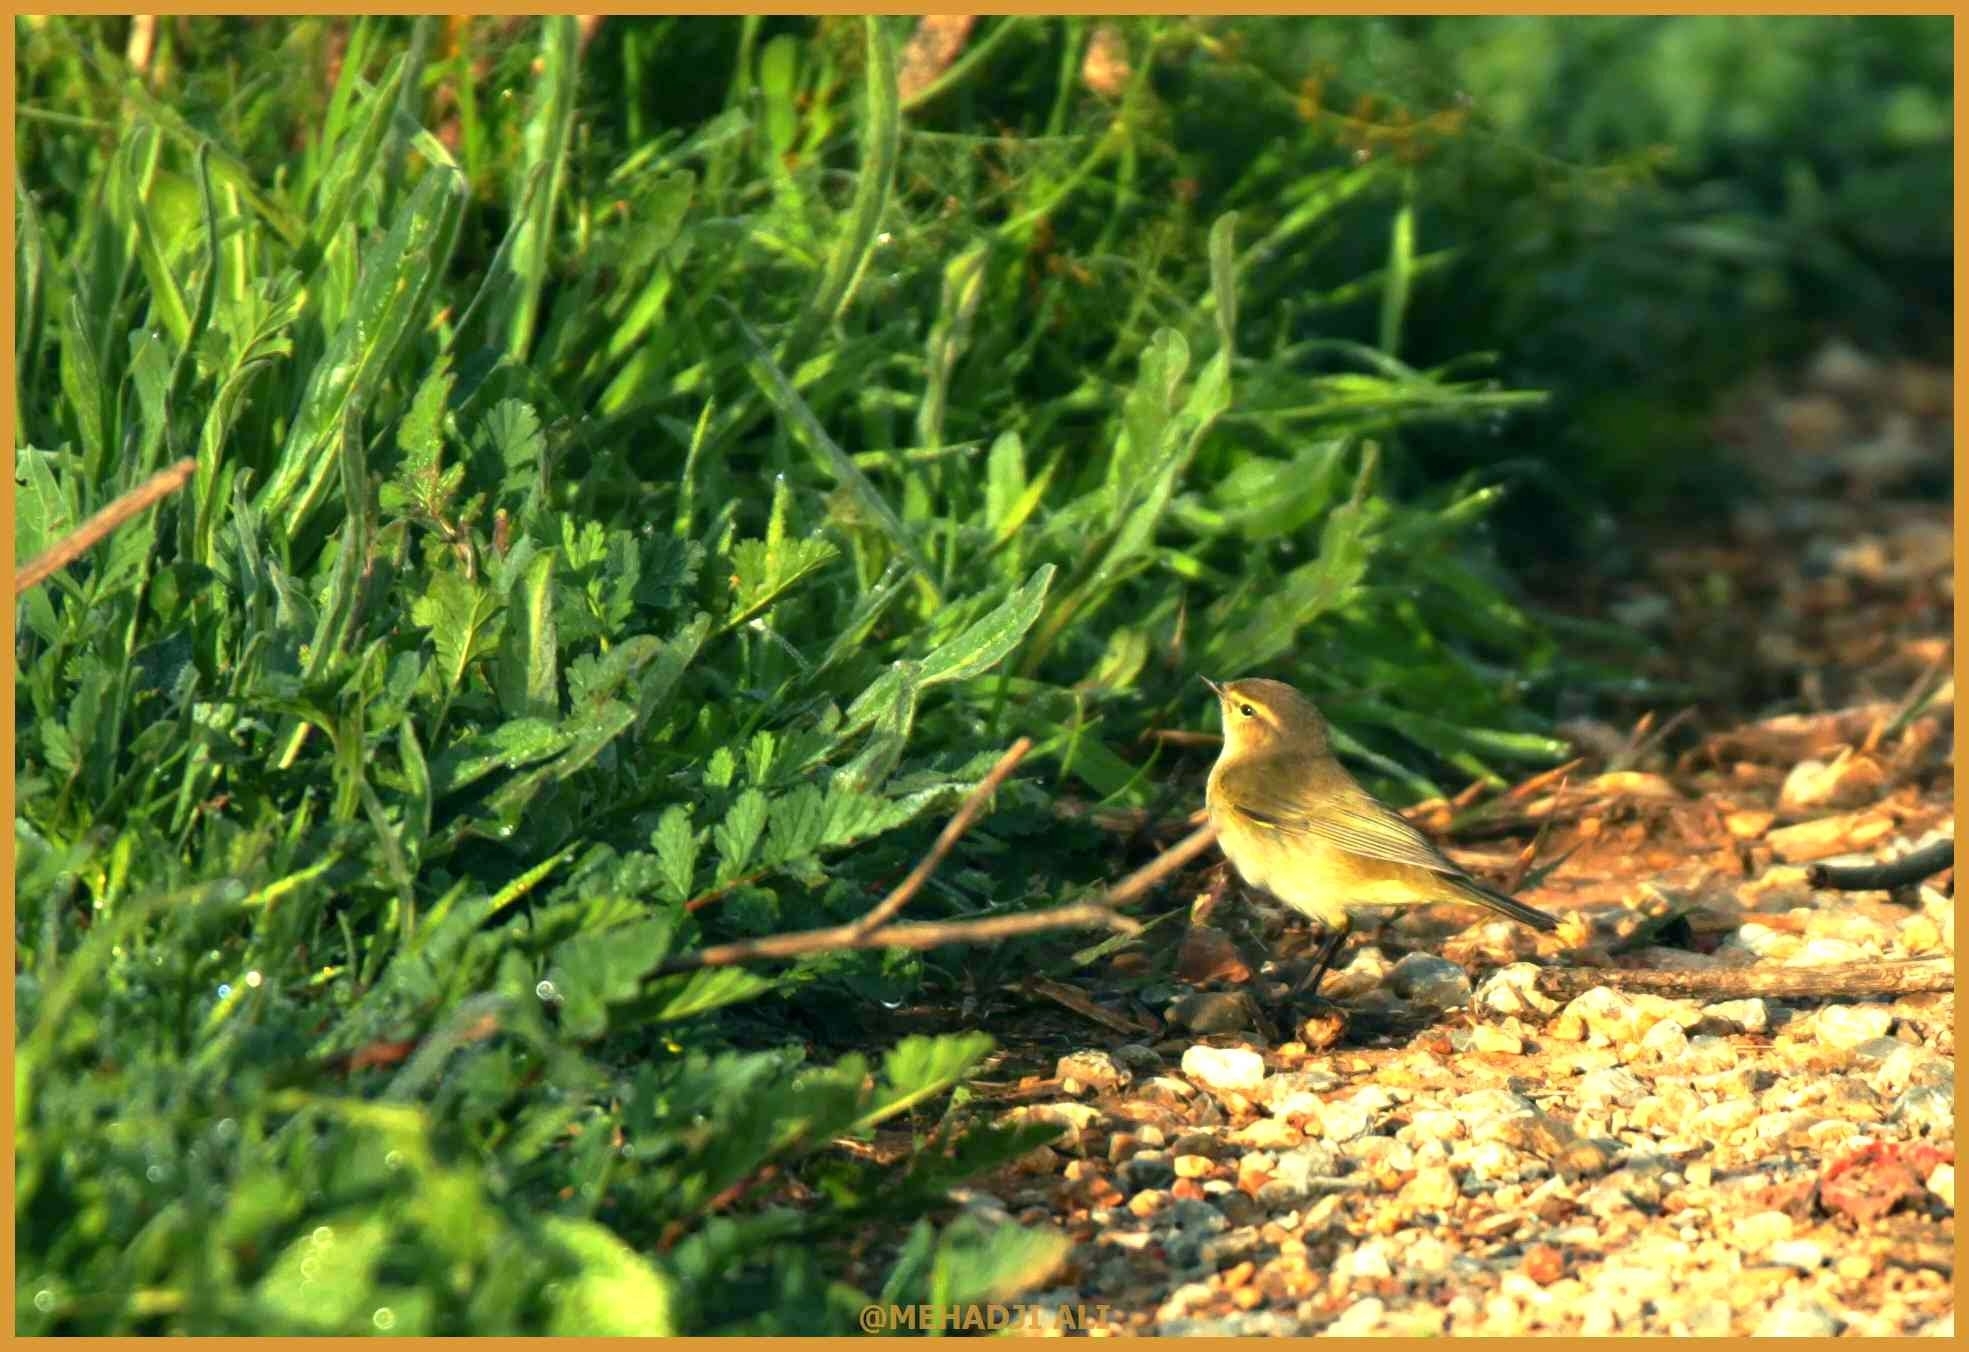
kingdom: Animalia
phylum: Chordata
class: Aves
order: Passeriformes
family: Phylloscopidae
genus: Phylloscopus
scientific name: Phylloscopus trochilus
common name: Willow warbler
